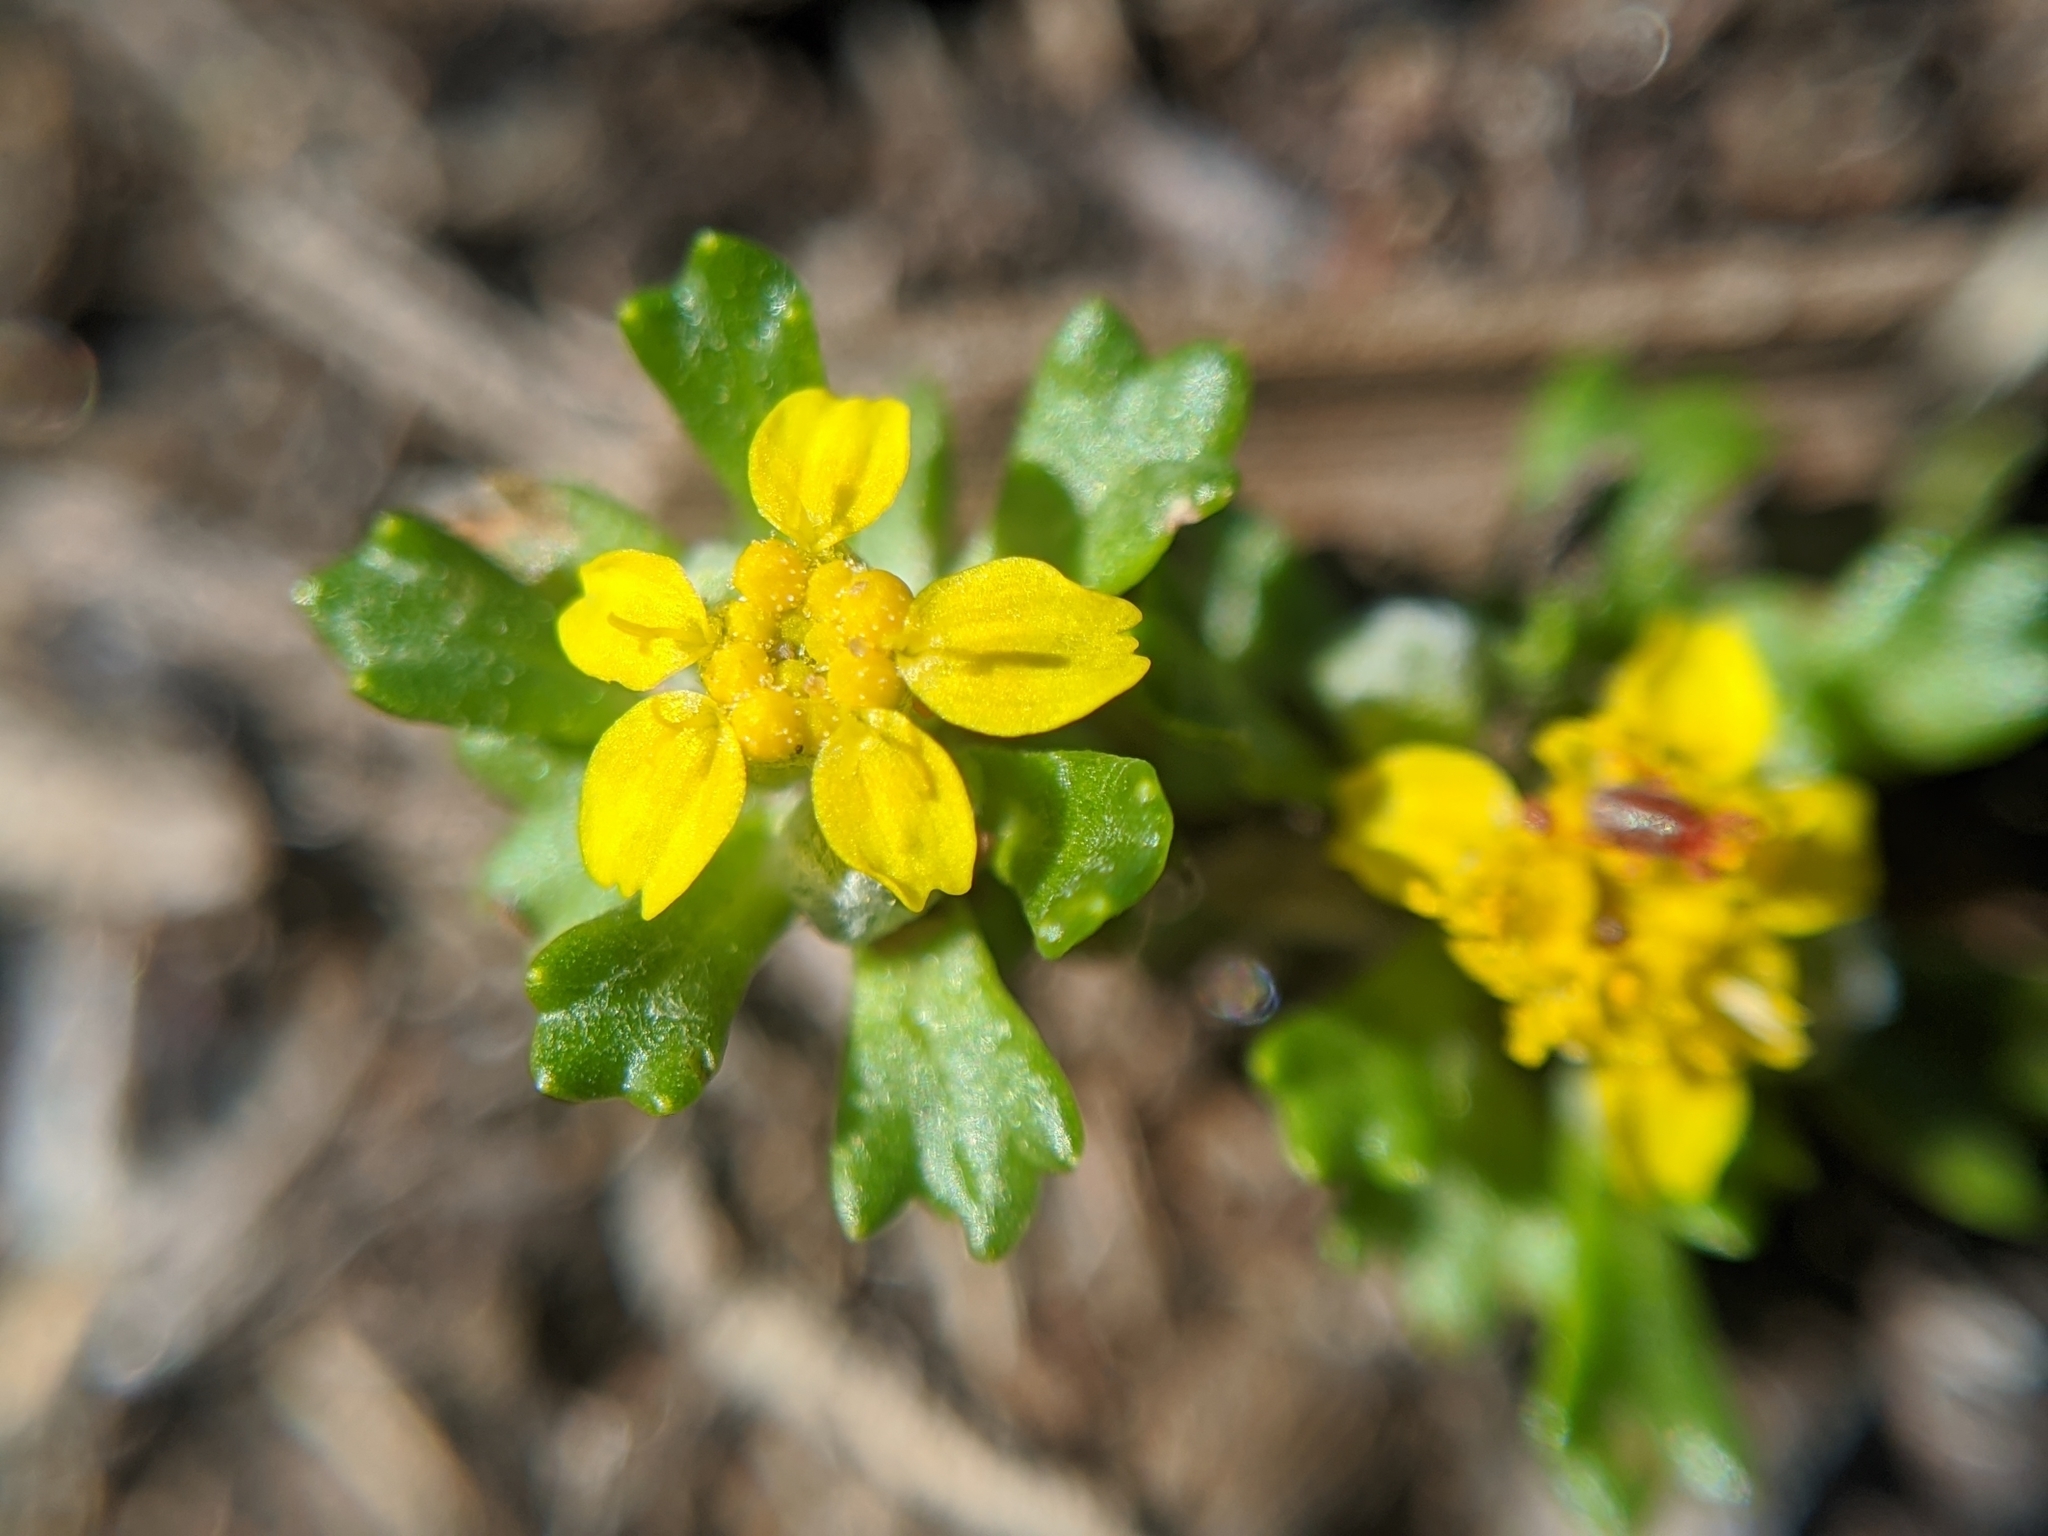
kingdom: Plantae
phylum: Tracheophyta
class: Magnoliopsida
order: Asterales
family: Asteraceae
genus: Eriophyllum
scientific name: Eriophyllum multicaule
